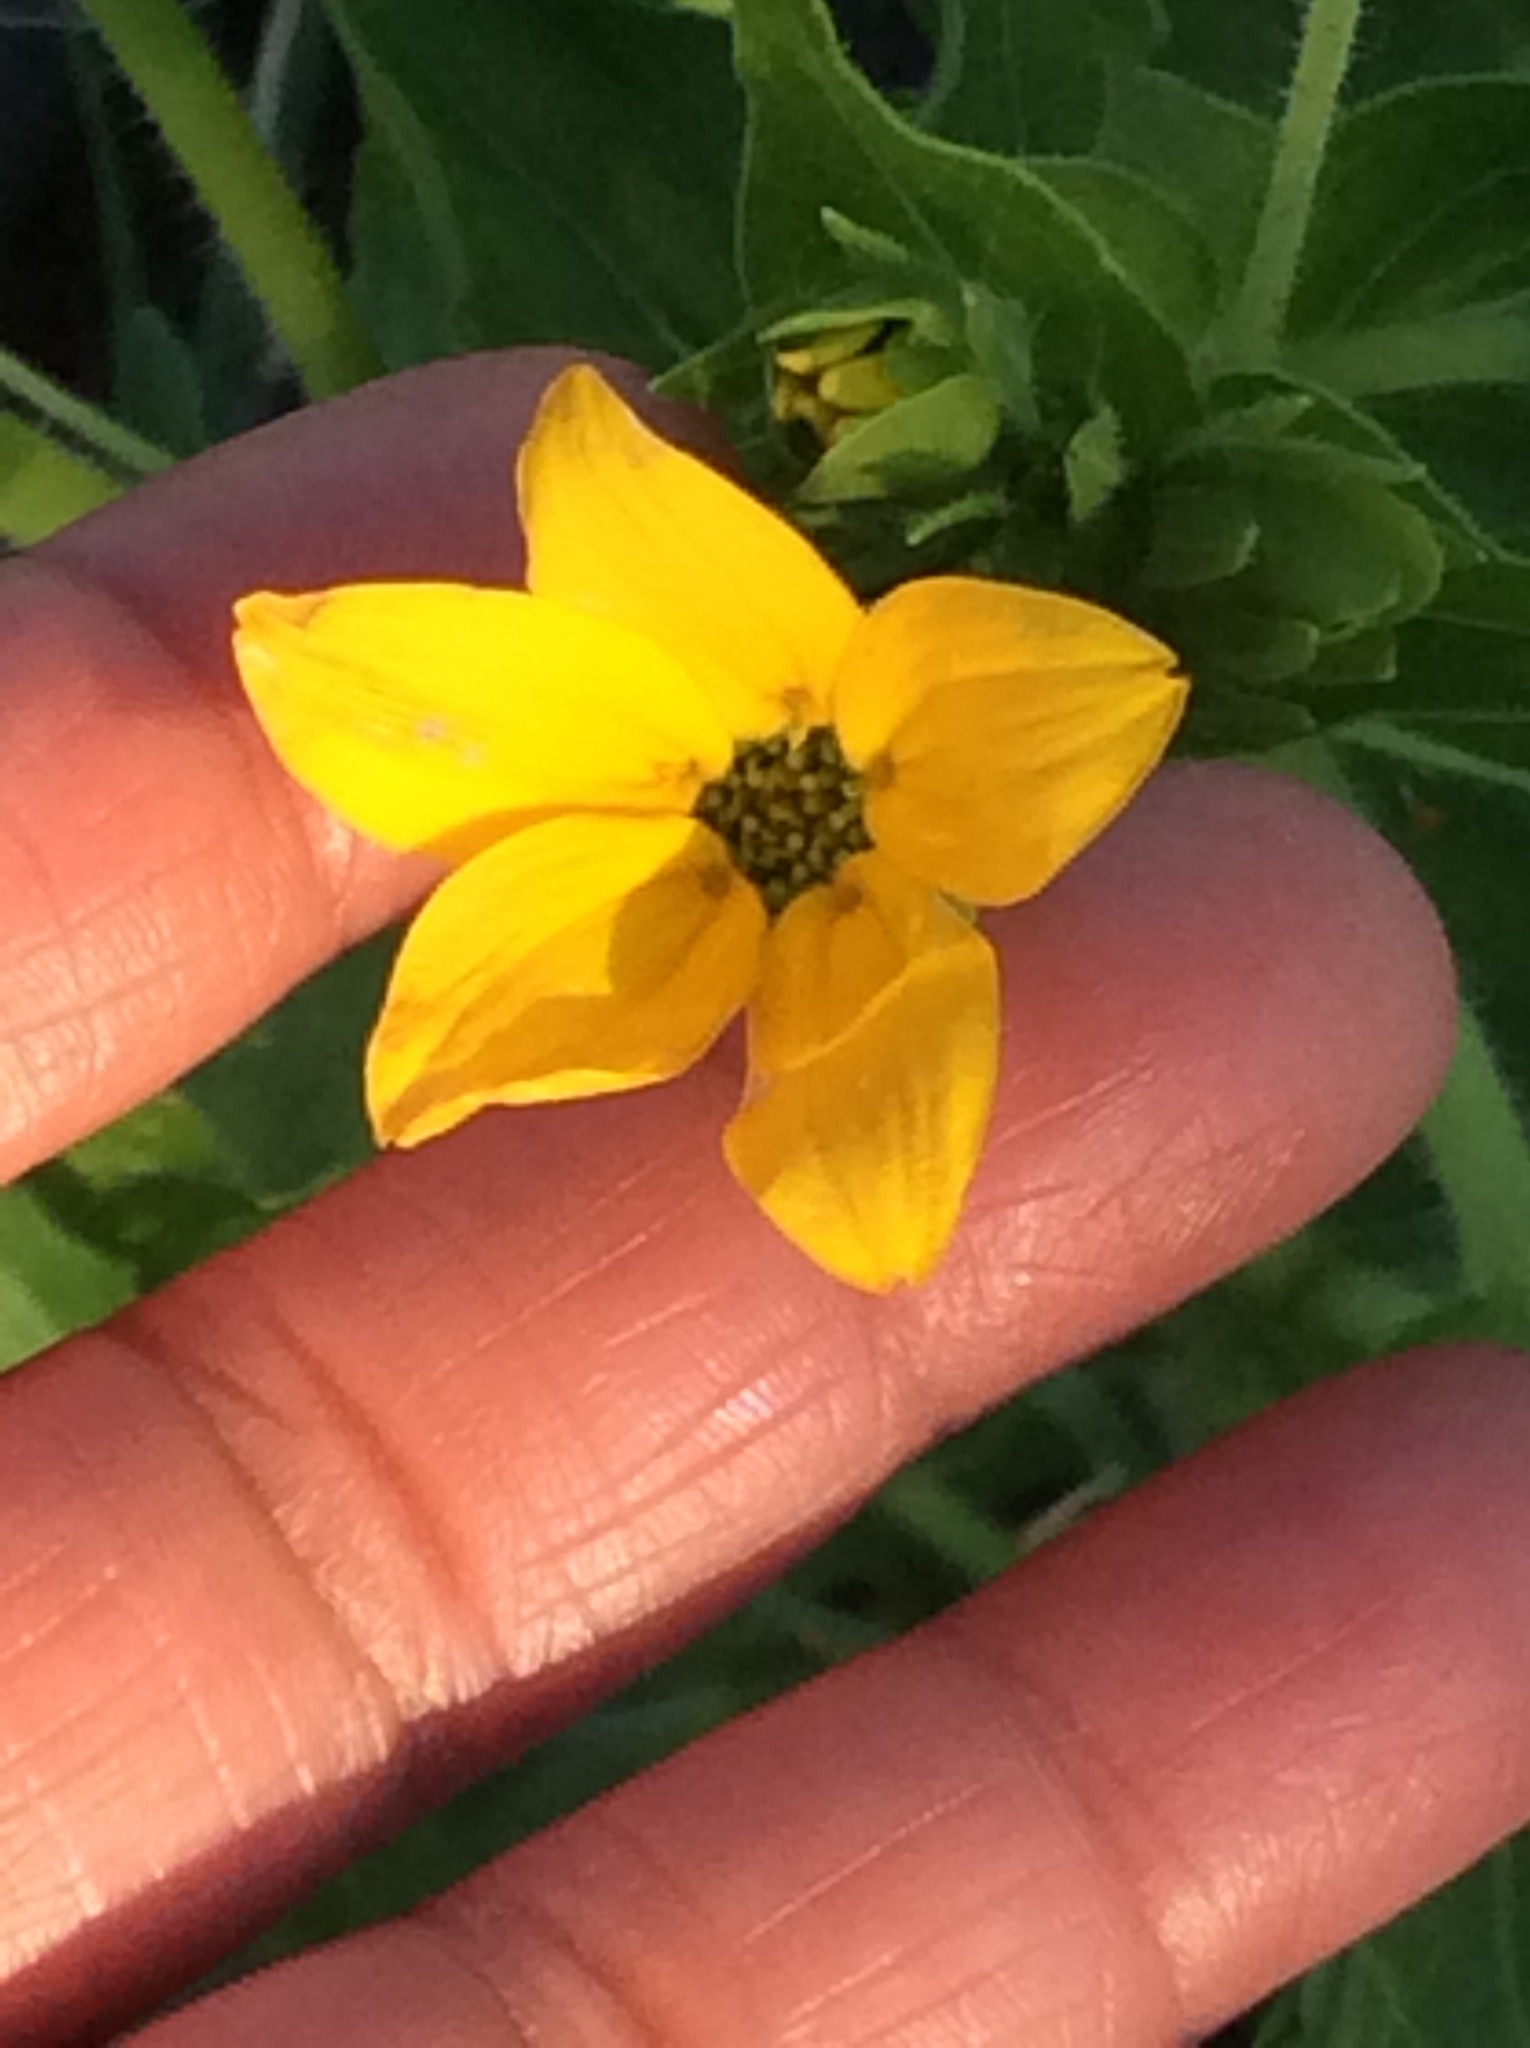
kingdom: Plantae
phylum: Tracheophyta
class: Magnoliopsida
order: Asterales
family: Asteraceae
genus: Lindheimera
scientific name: Lindheimera texana
